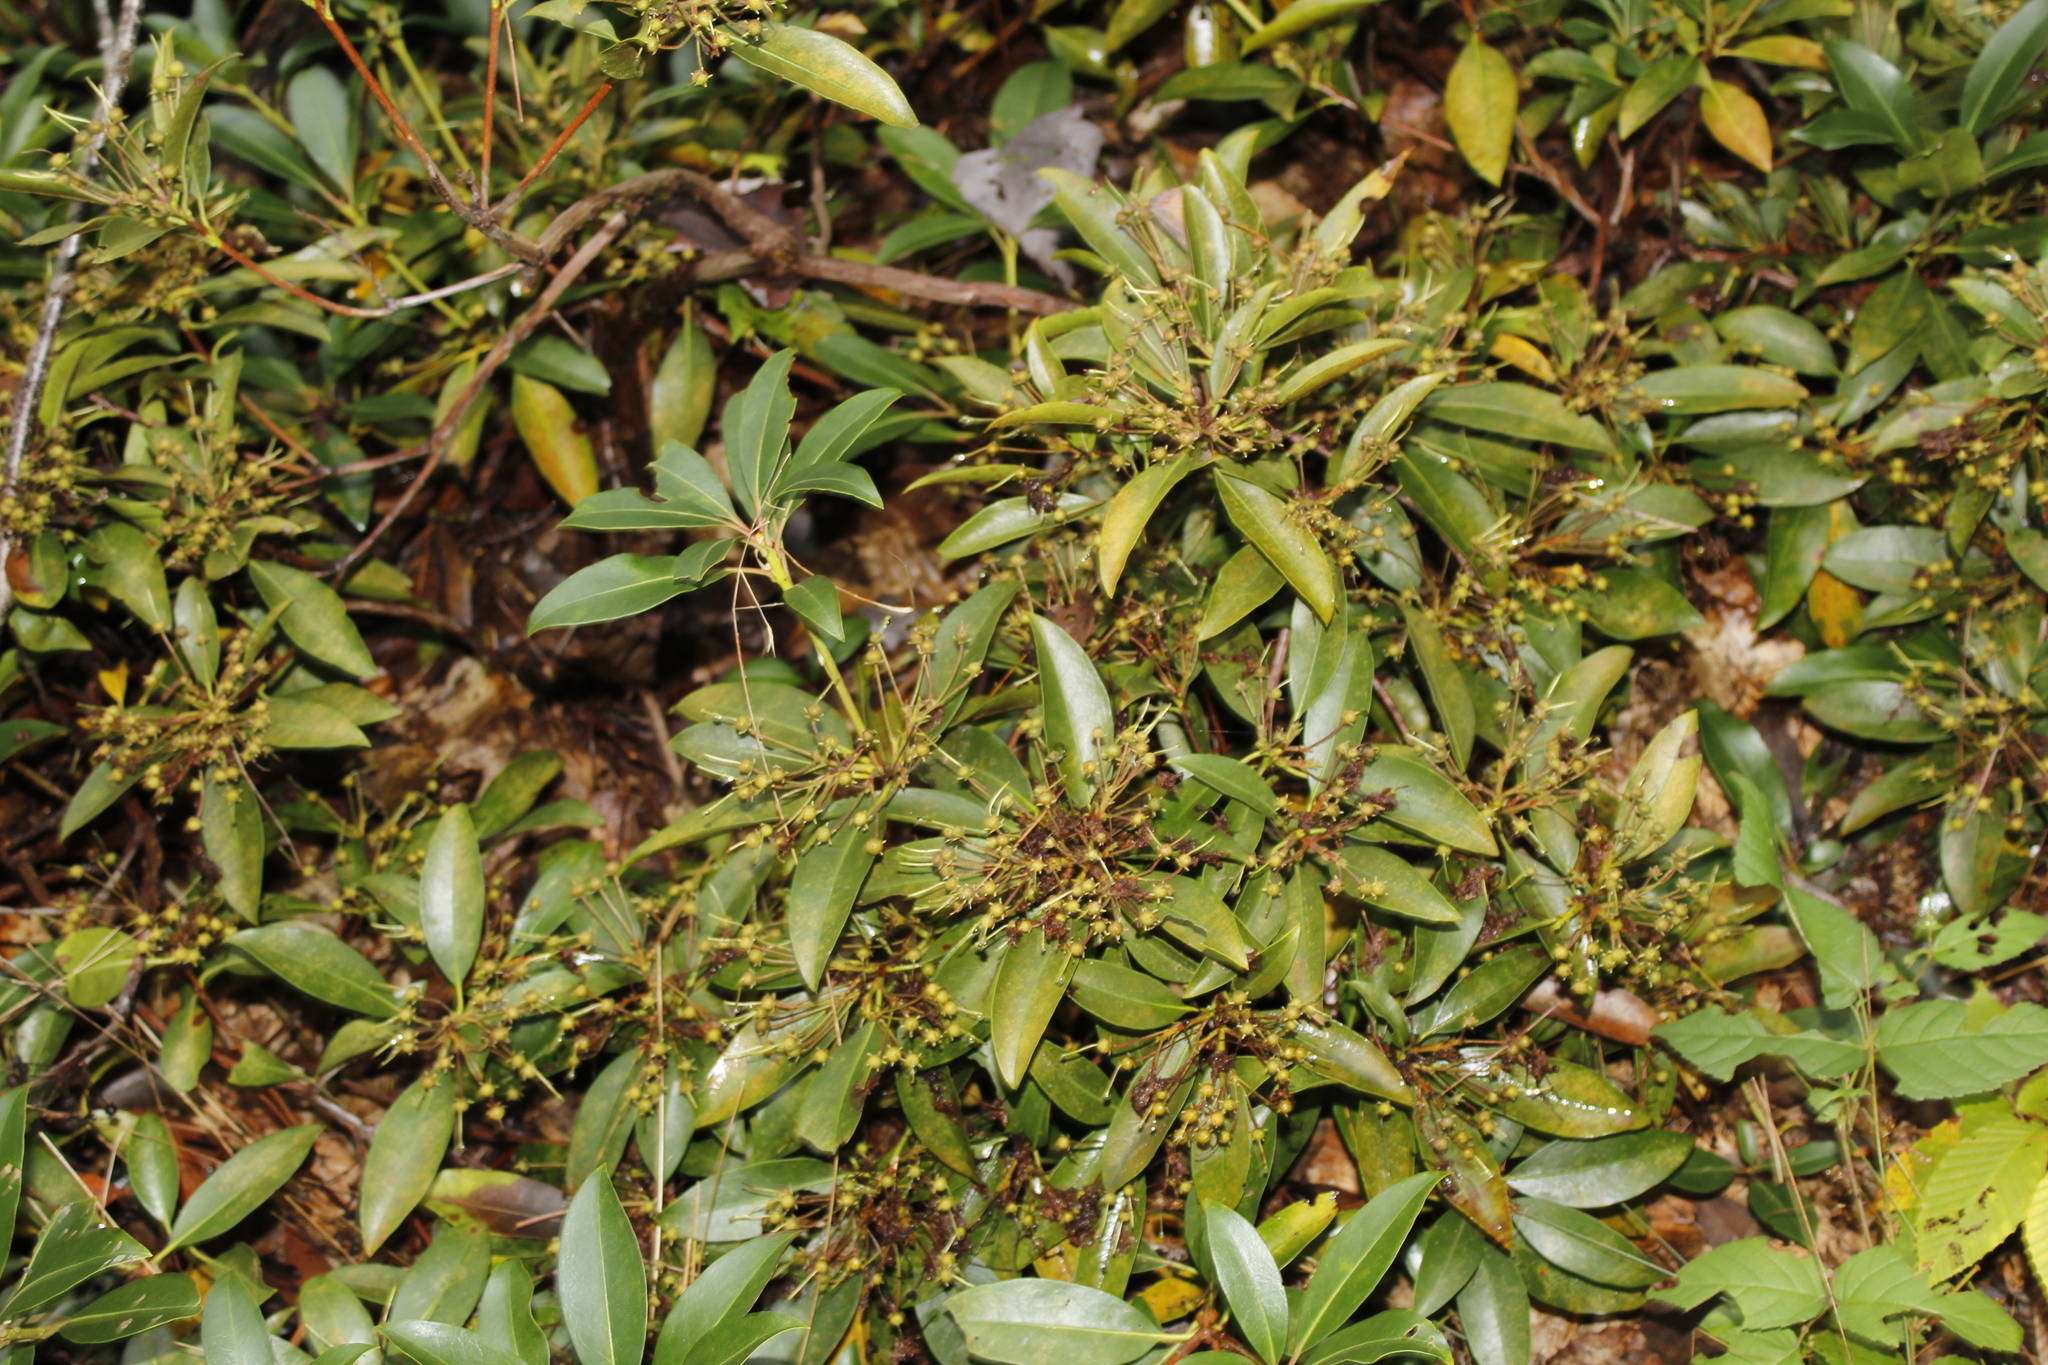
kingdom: Plantae
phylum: Tracheophyta
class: Magnoliopsida
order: Ericales
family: Ericaceae
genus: Kalmia
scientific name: Kalmia latifolia
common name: Mountain-laurel
